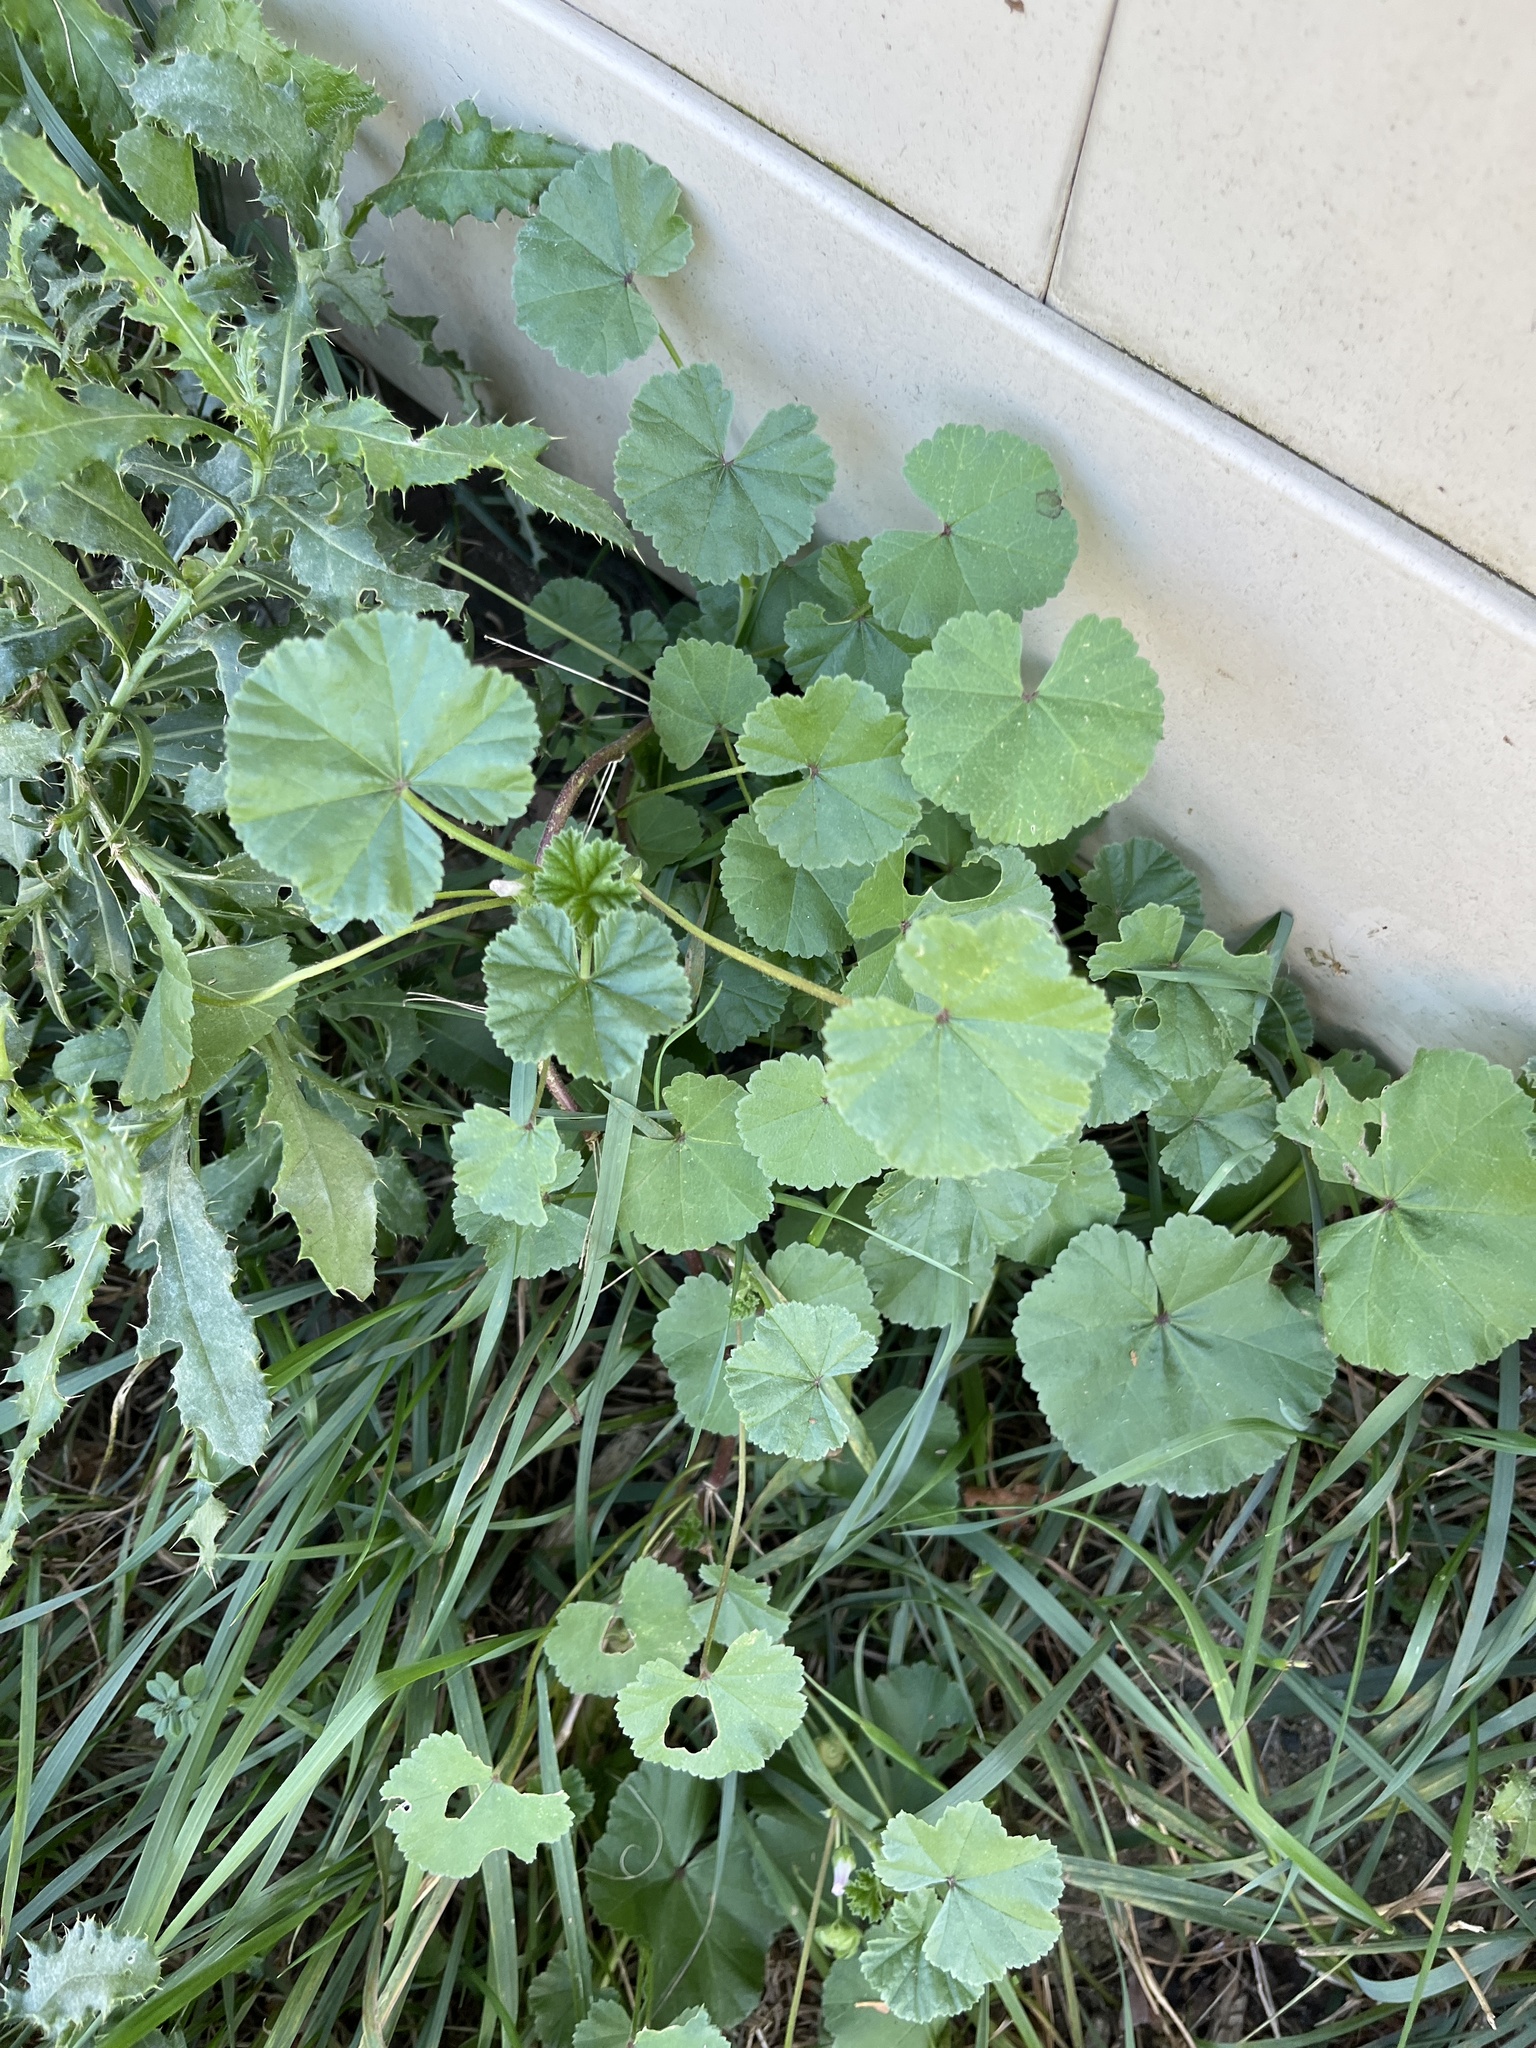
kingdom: Plantae
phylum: Tracheophyta
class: Magnoliopsida
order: Malvales
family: Malvaceae
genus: Malva
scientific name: Malva
